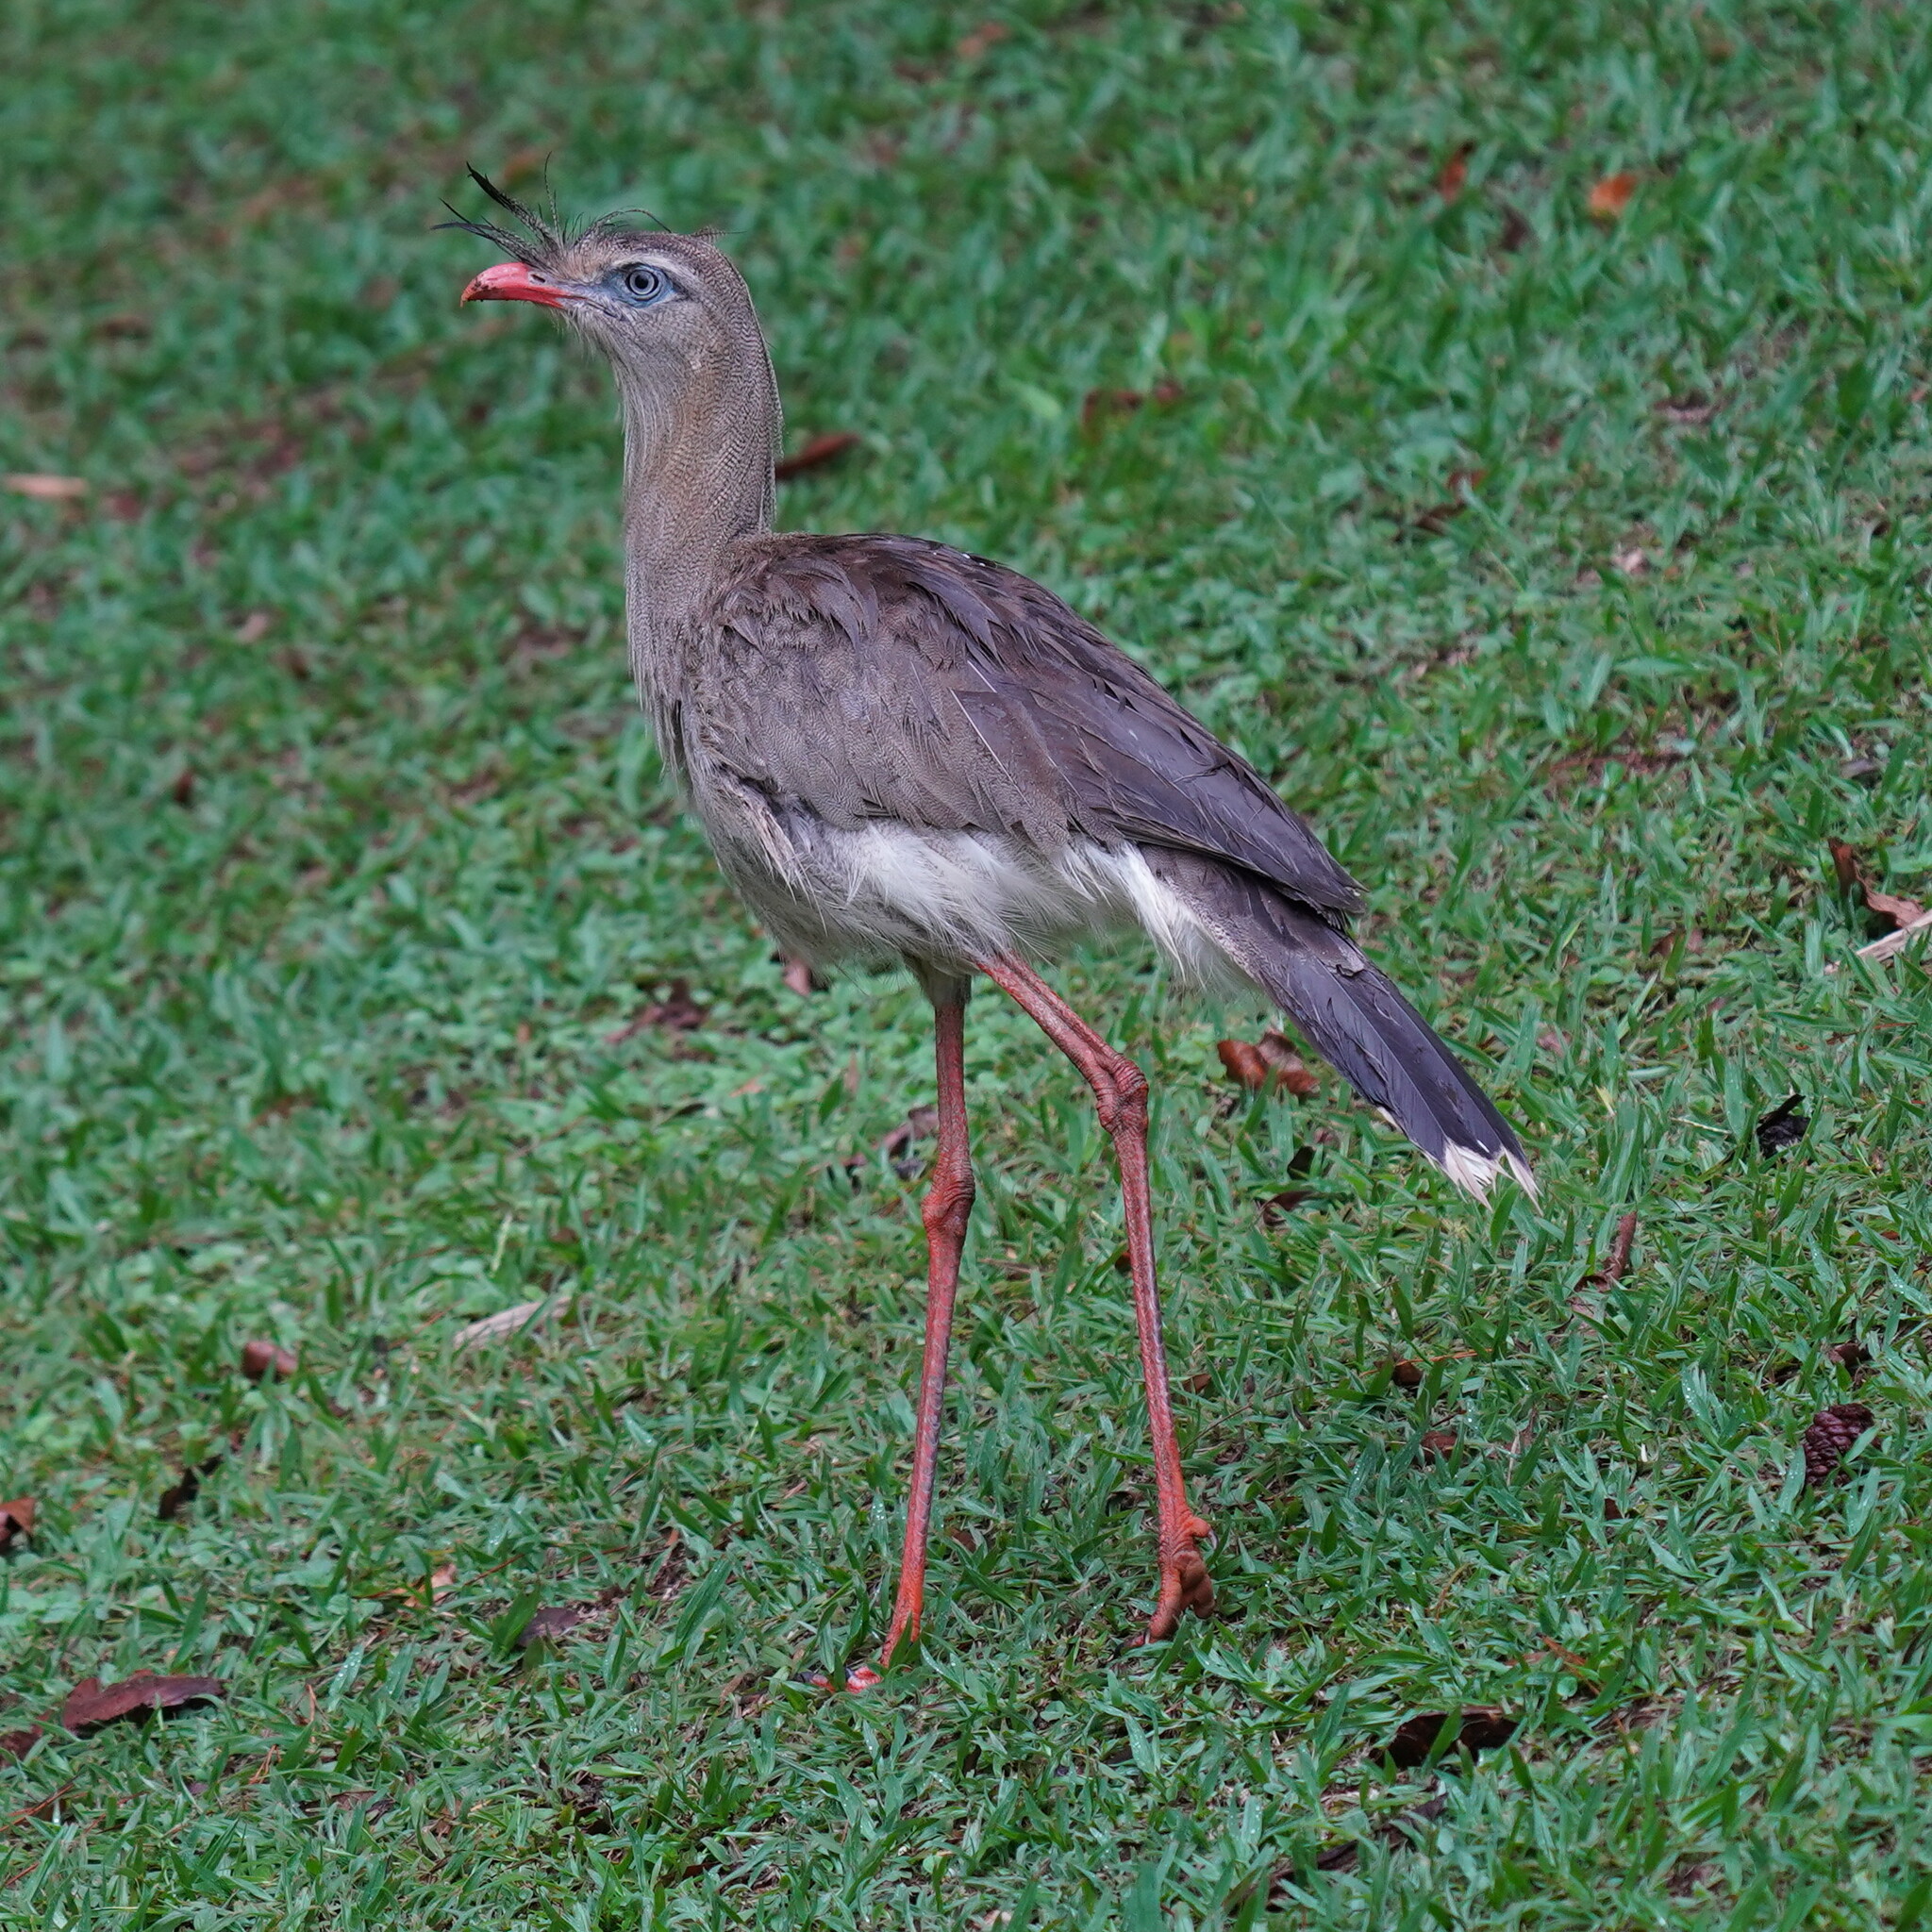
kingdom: Animalia
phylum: Chordata
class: Aves
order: Cariamiformes
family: Cariamidae
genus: Cariama
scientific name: Cariama cristata
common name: Red-legged seriema
